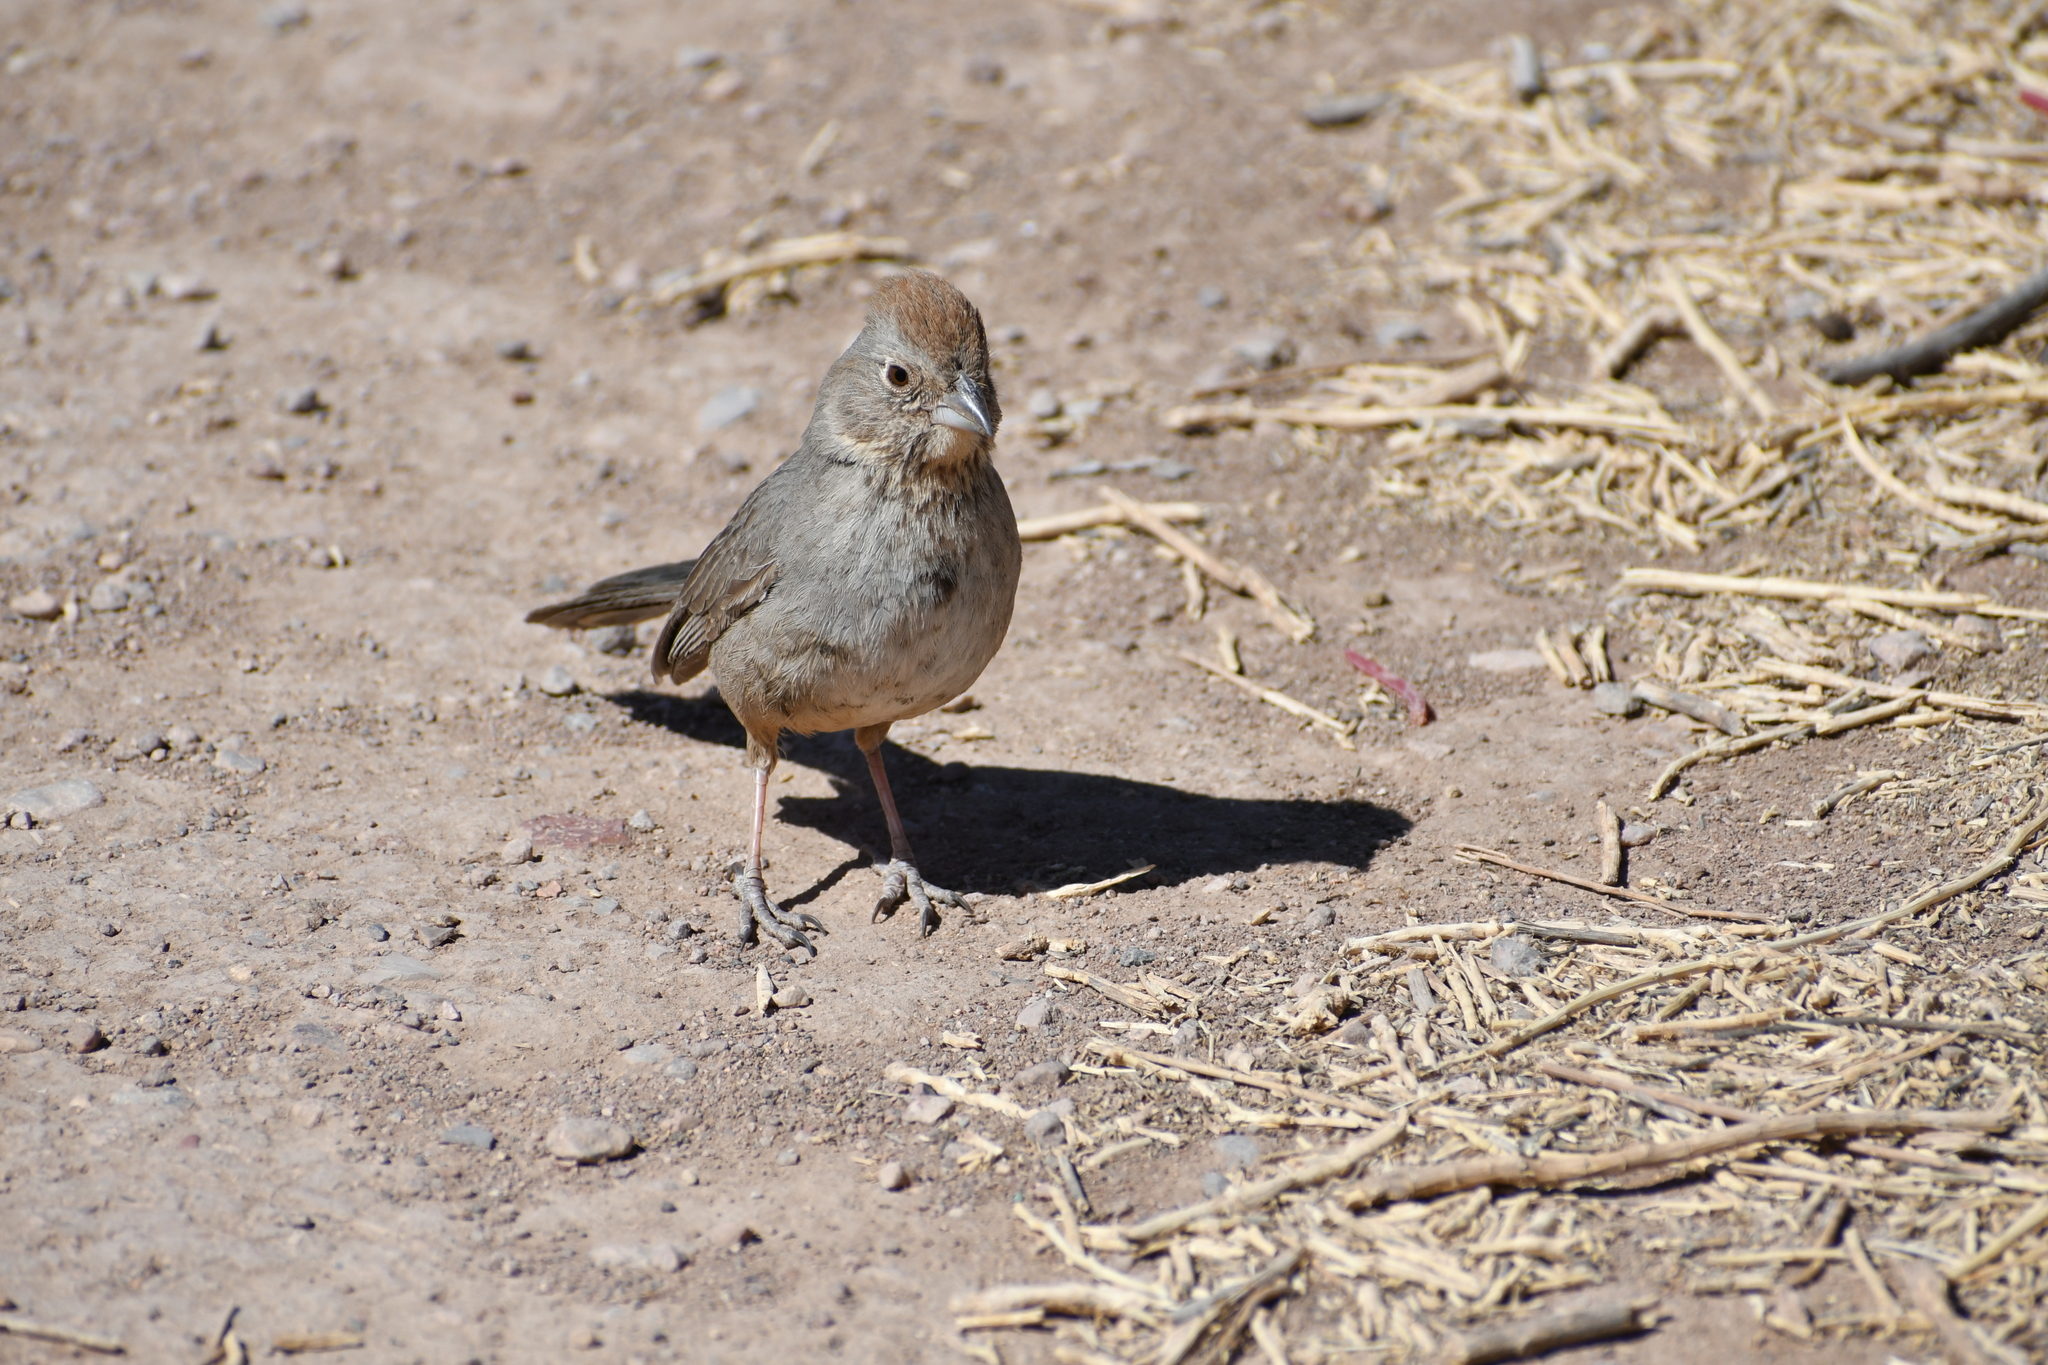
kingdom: Animalia
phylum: Chordata
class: Aves
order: Passeriformes
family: Passerellidae
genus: Melozone
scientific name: Melozone fusca
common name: Canyon towhee
